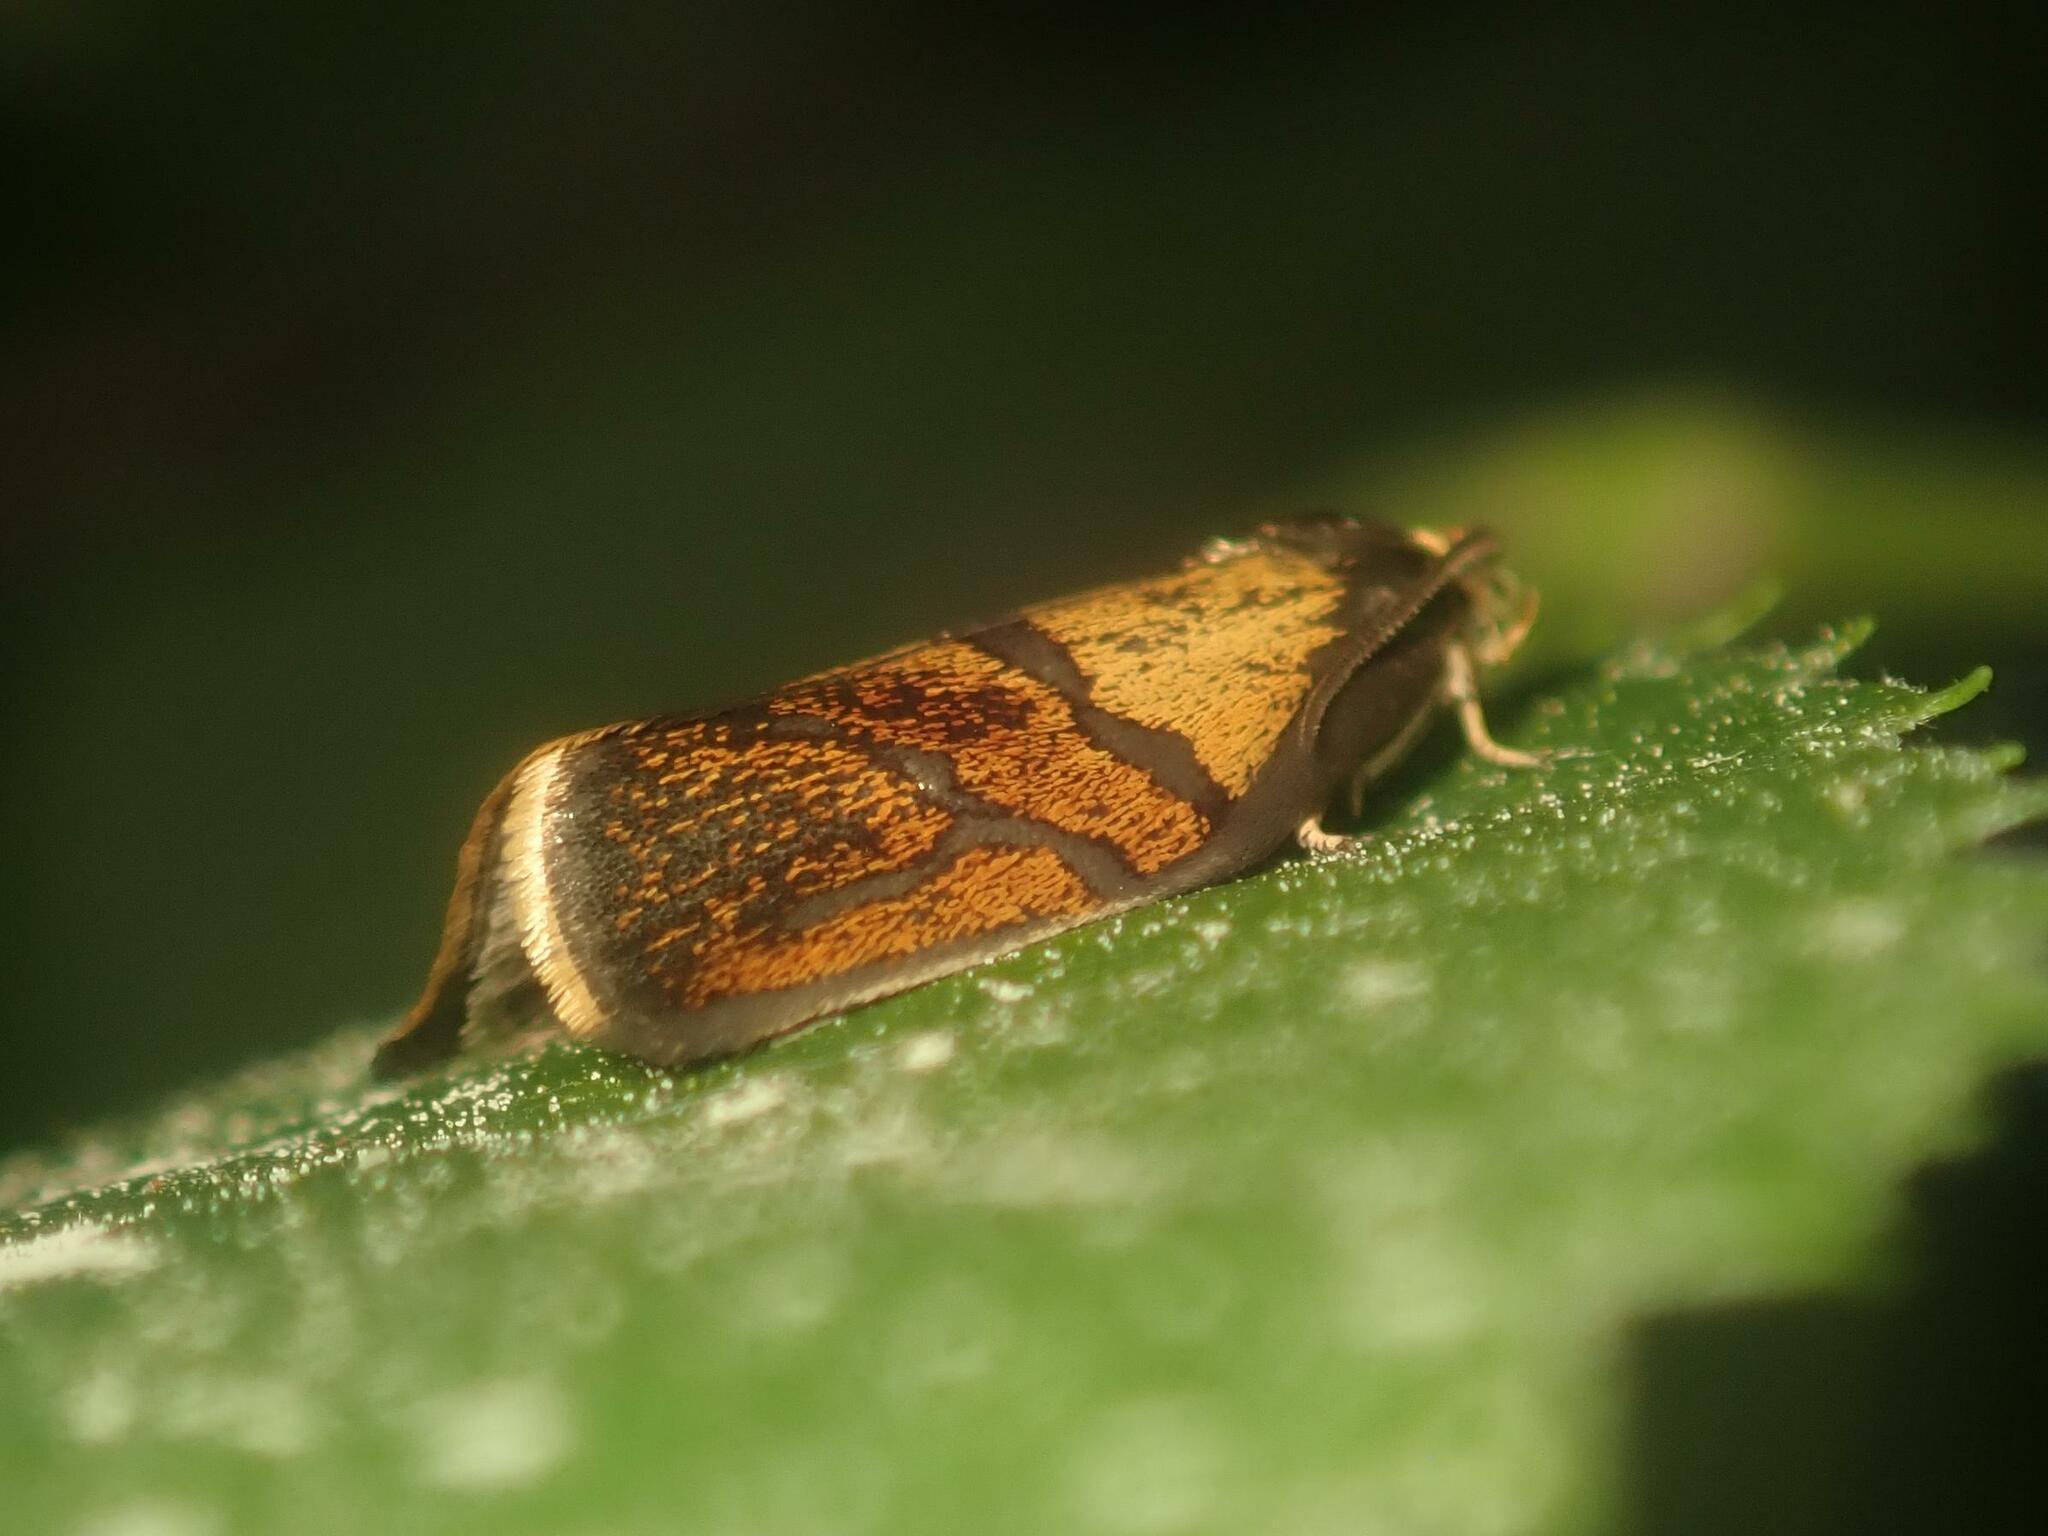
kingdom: Animalia
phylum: Arthropoda
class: Insecta
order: Lepidoptera
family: Tortricidae
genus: Ptycholoma
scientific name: Ptycholoma lecheana
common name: Leches twist moth
